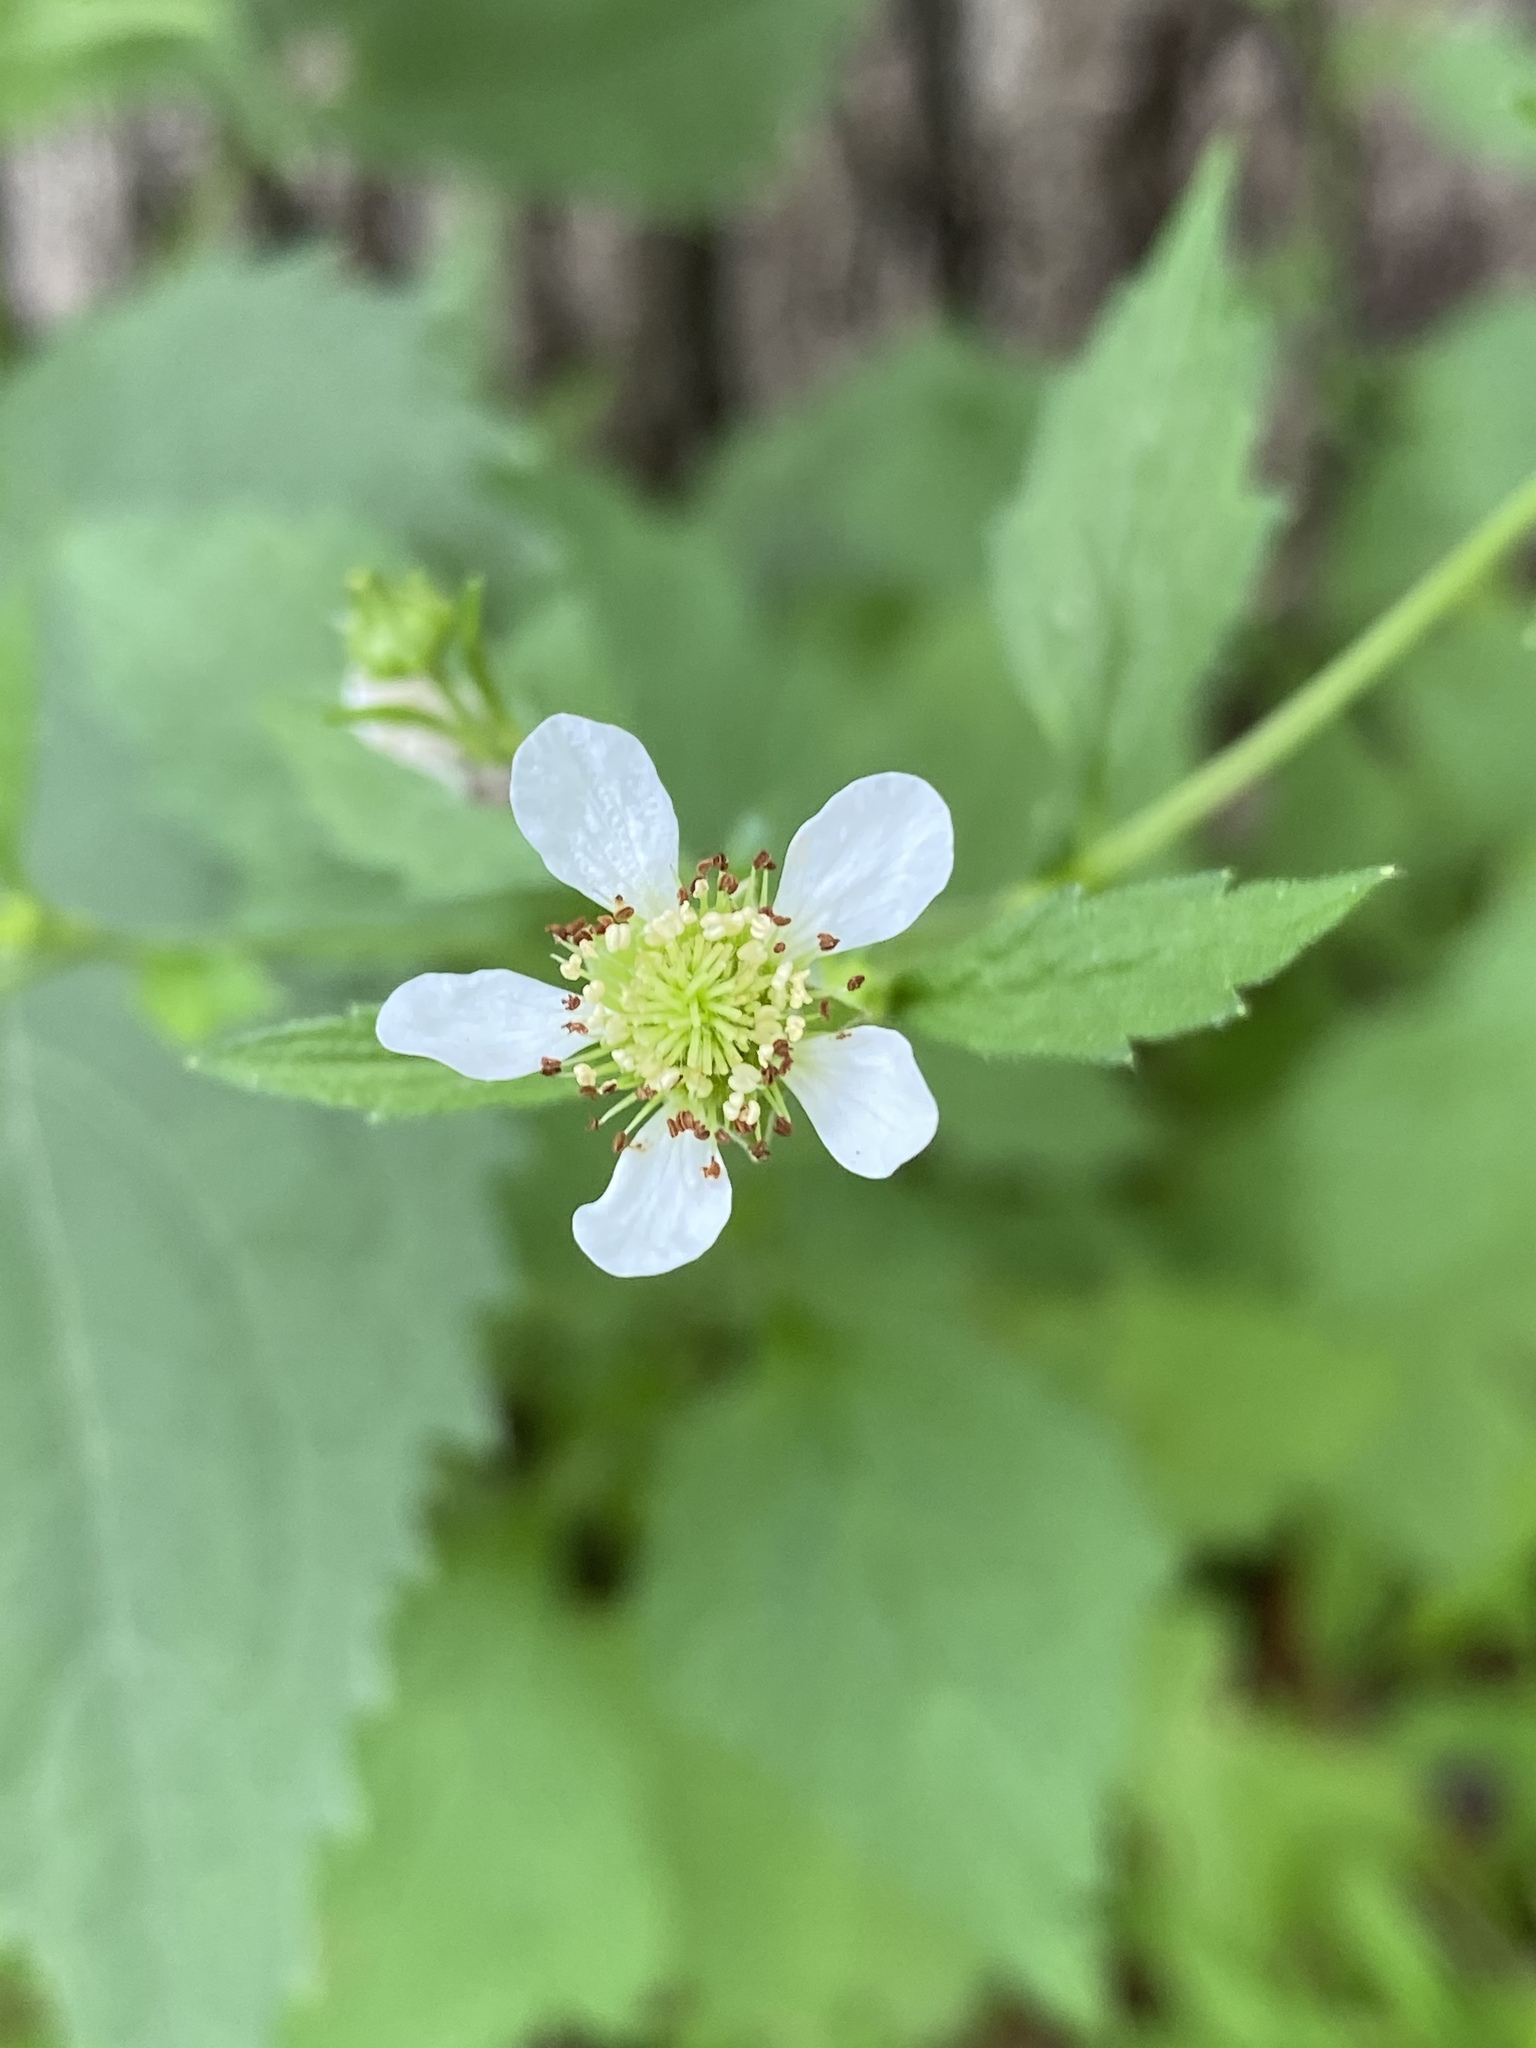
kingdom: Plantae
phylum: Tracheophyta
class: Magnoliopsida
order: Rosales
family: Rosaceae
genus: Geum
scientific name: Geum canadense
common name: White avens
